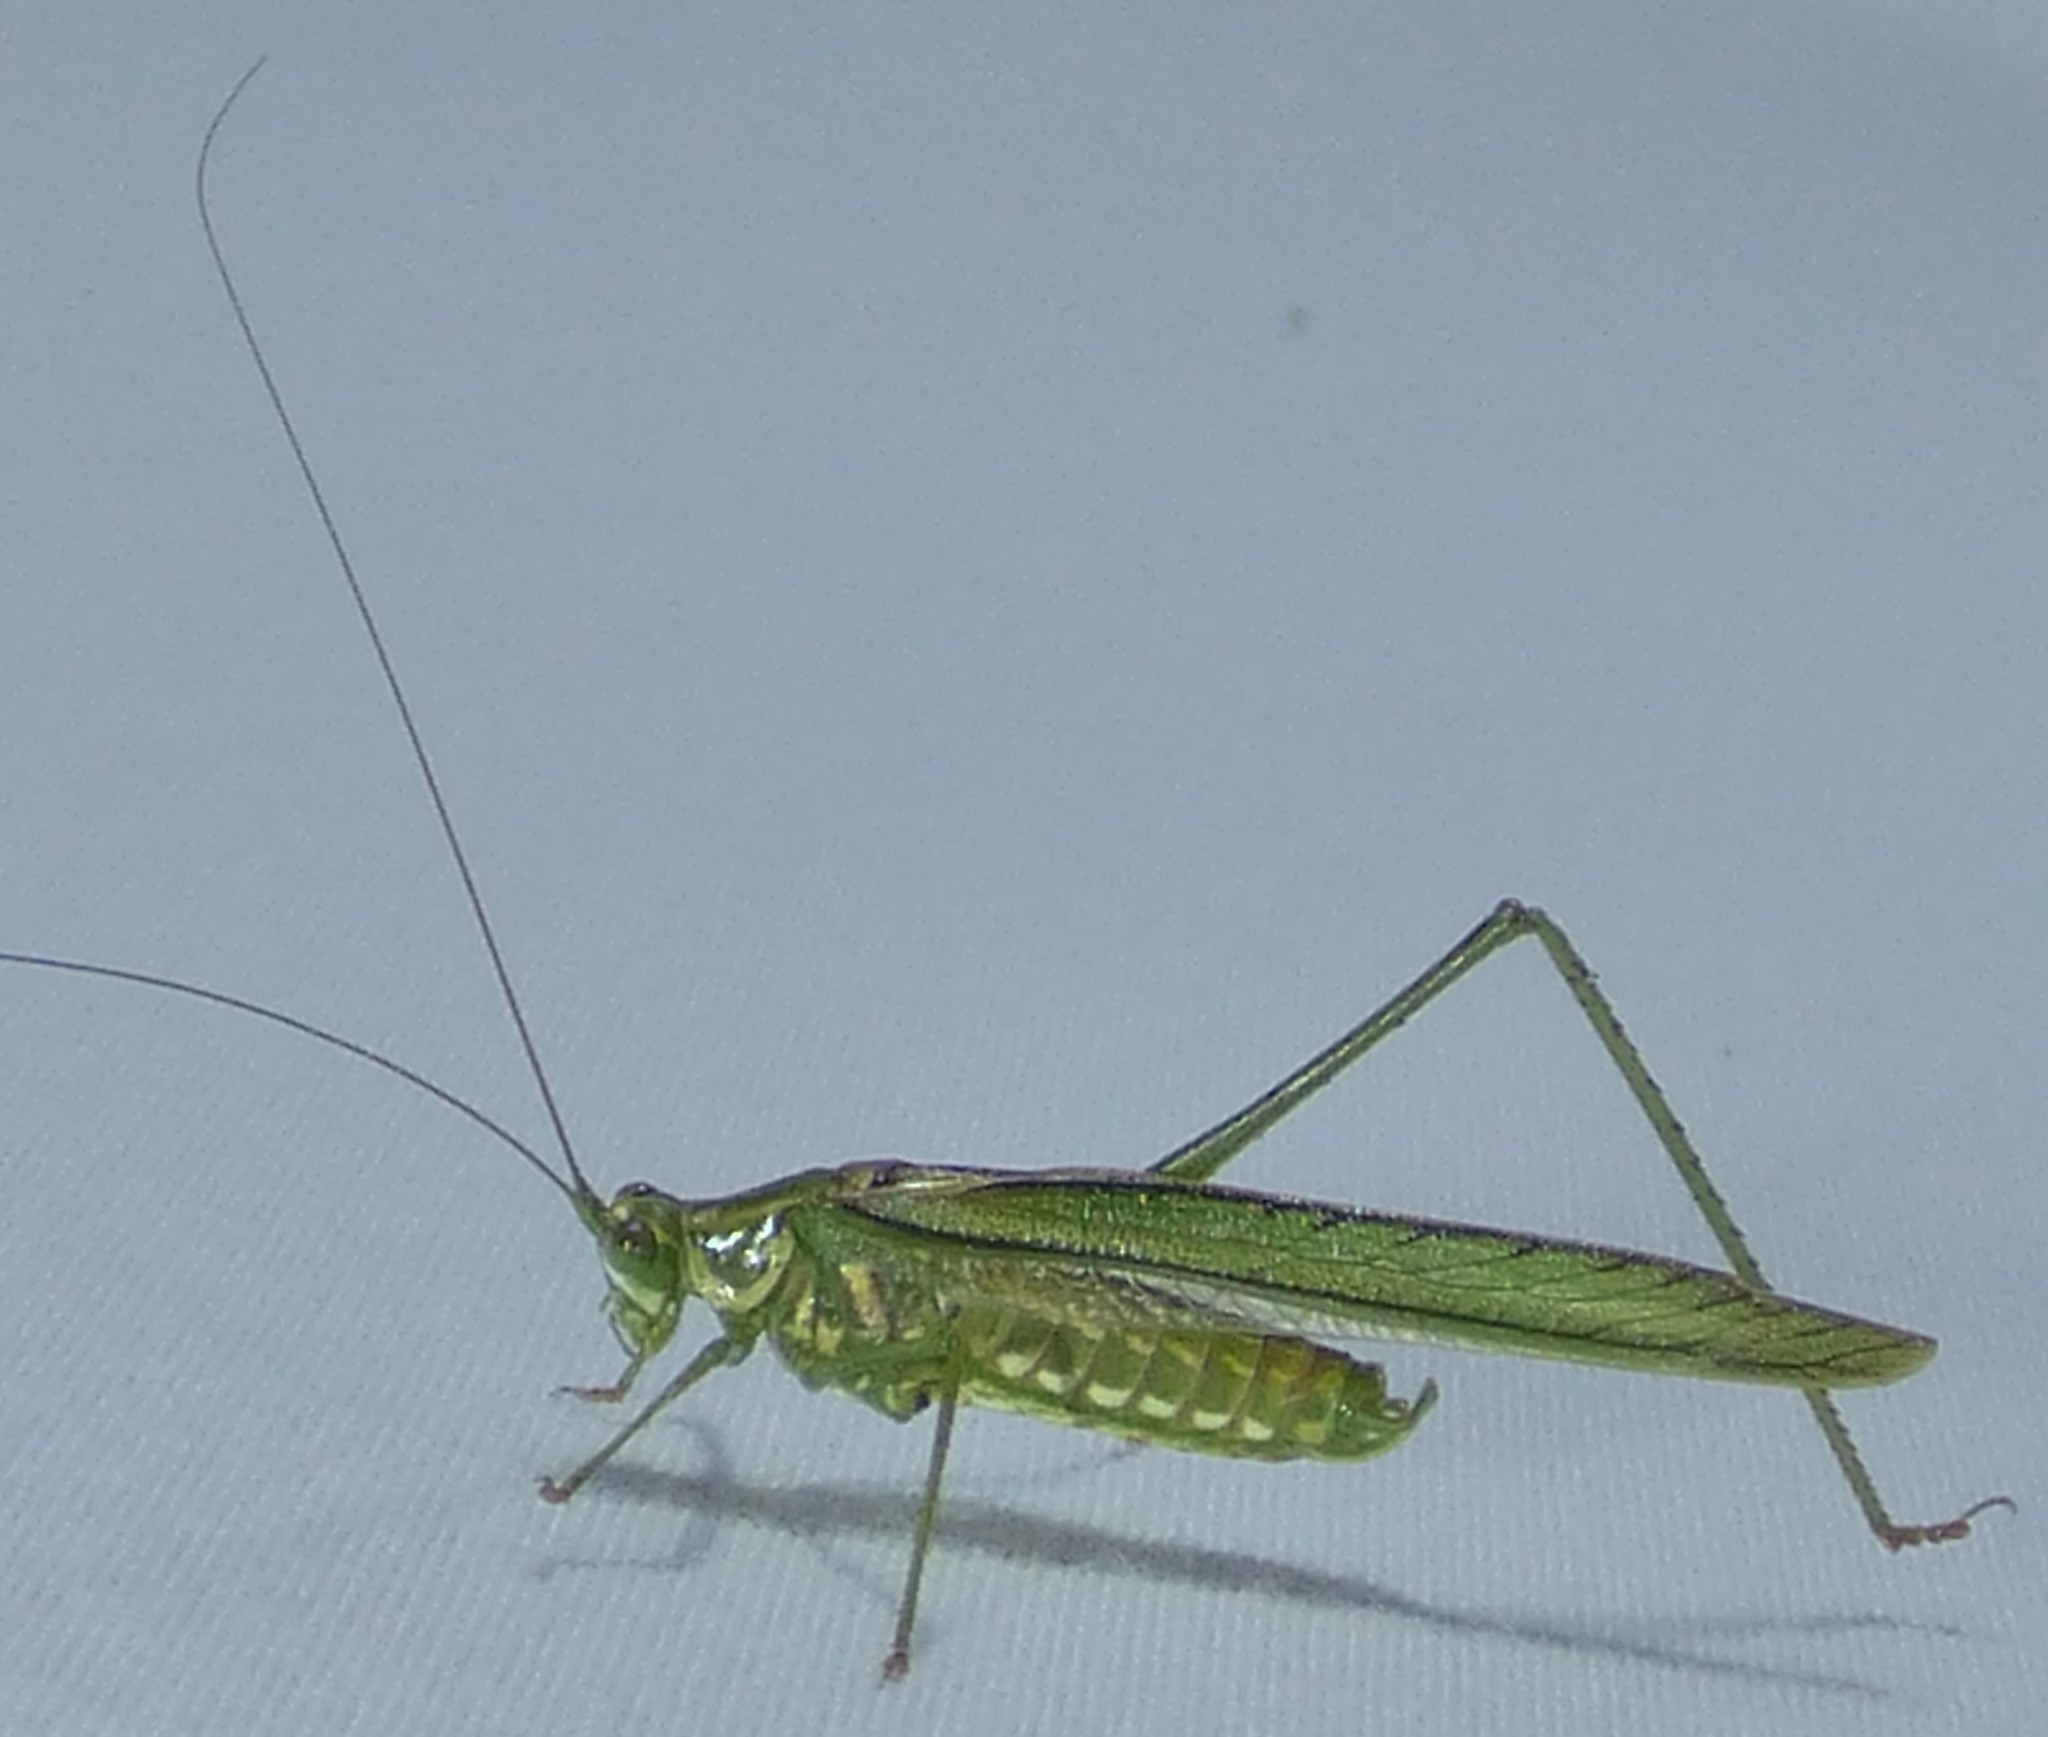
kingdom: Animalia
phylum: Arthropoda
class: Insecta
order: Orthoptera
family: Tettigoniidae
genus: Inscudderia
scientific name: Inscudderia walkeri
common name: Eastern cypress katydid
